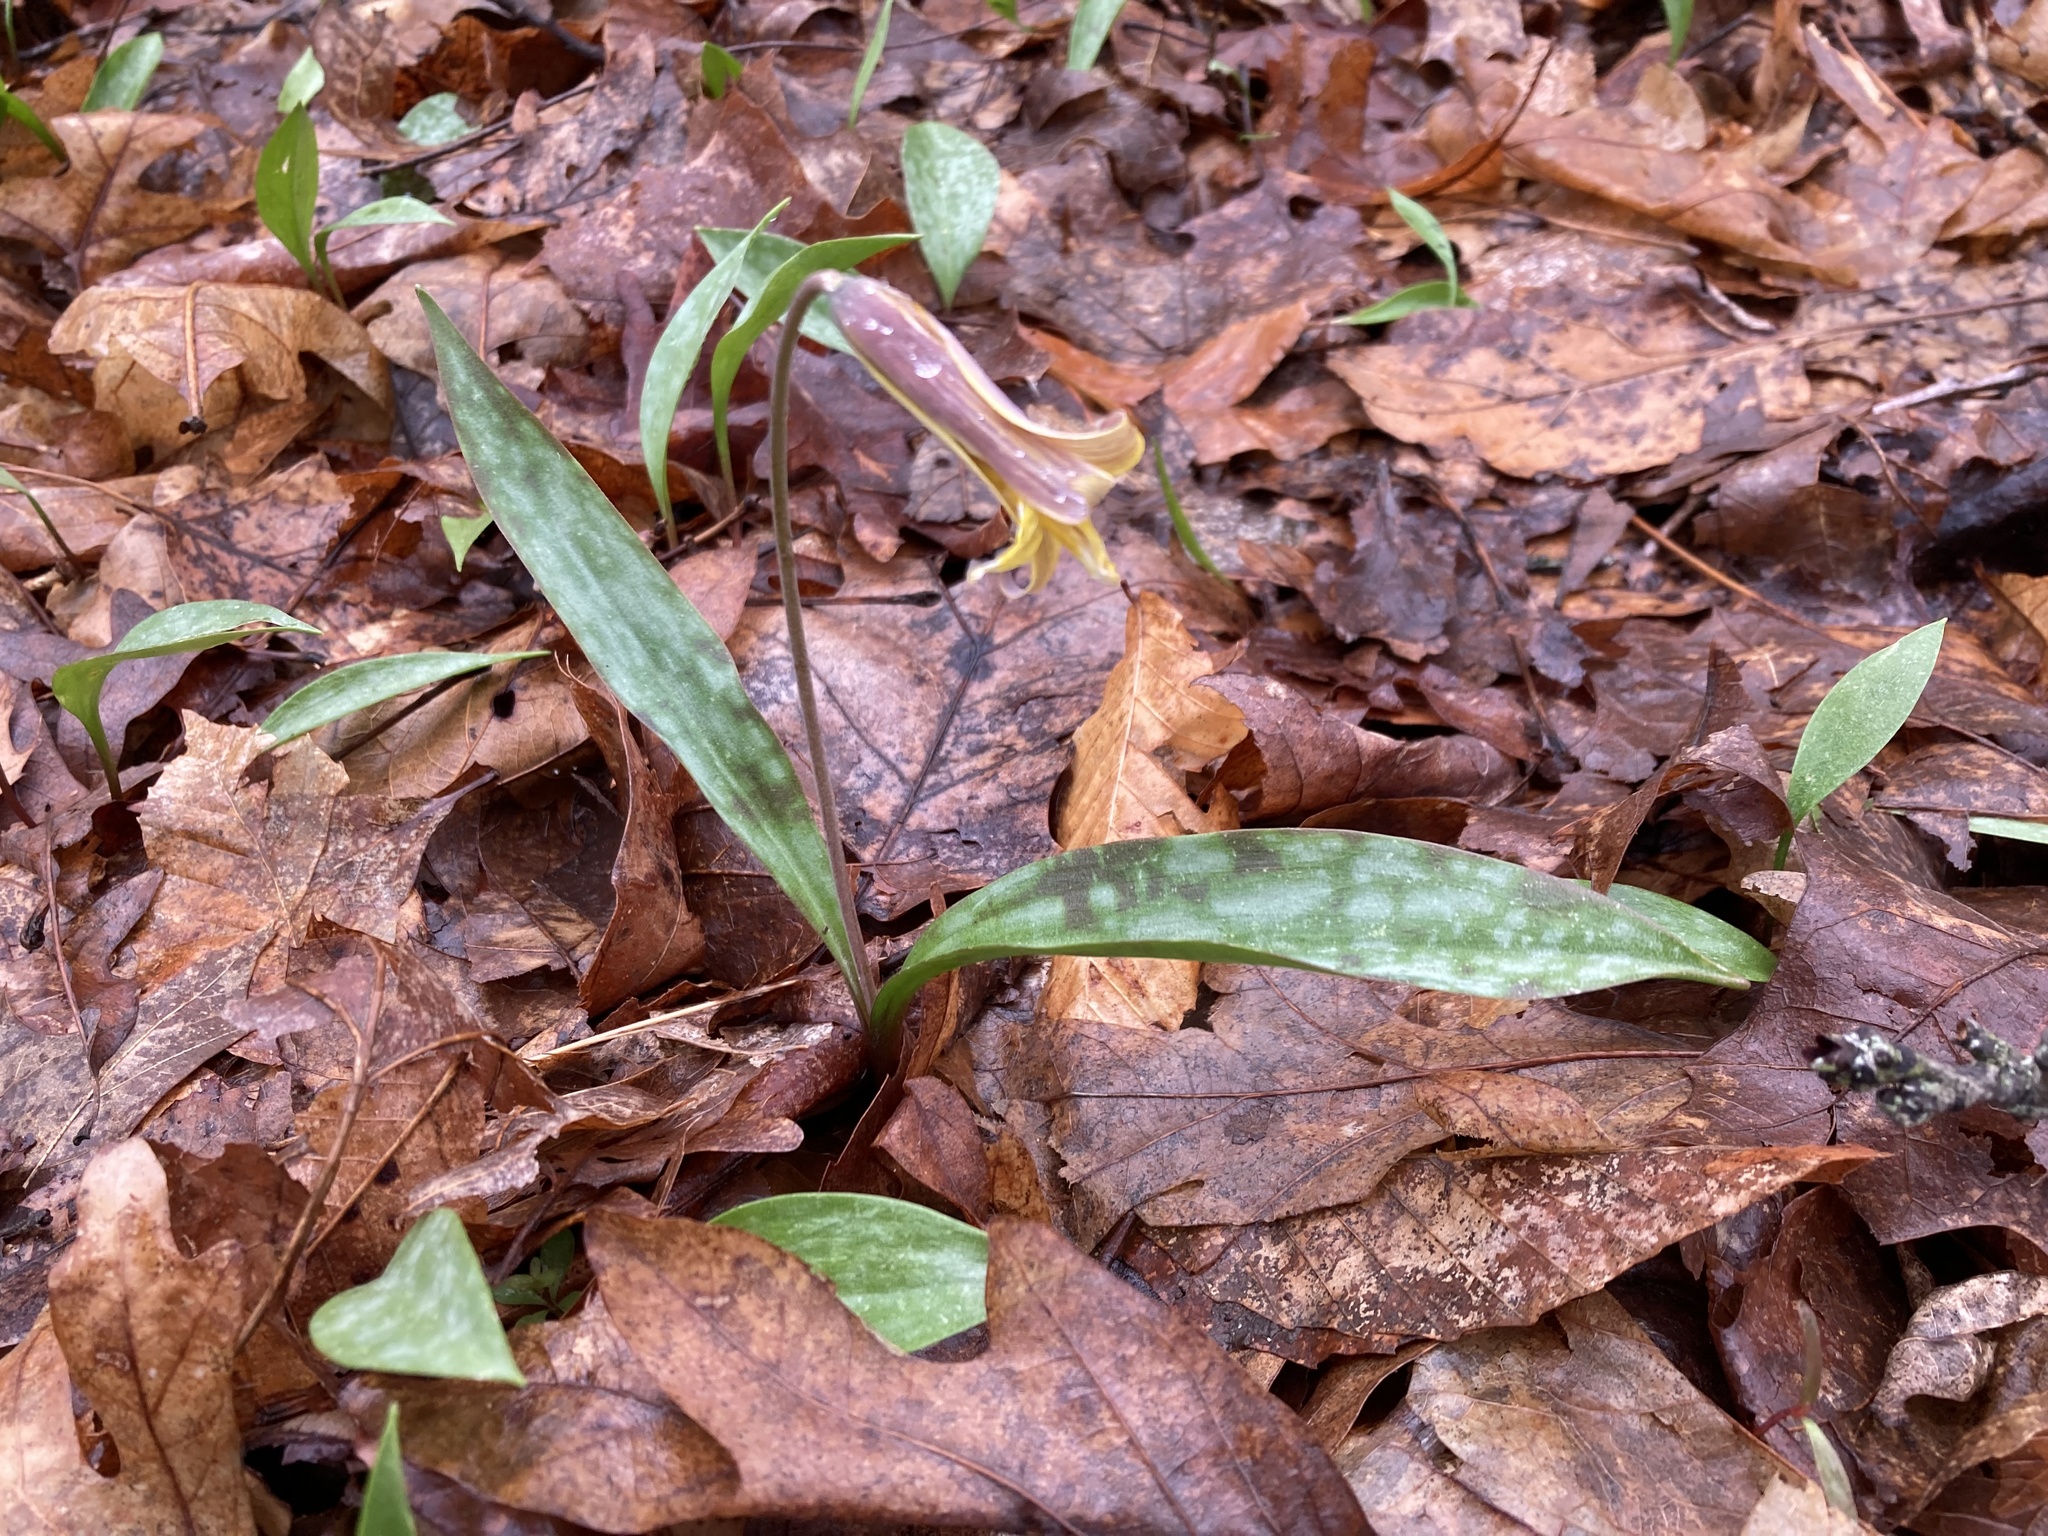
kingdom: Plantae
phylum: Tracheophyta
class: Liliopsida
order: Liliales
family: Liliaceae
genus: Erythronium
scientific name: Erythronium americanum
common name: Yellow adder's-tongue
